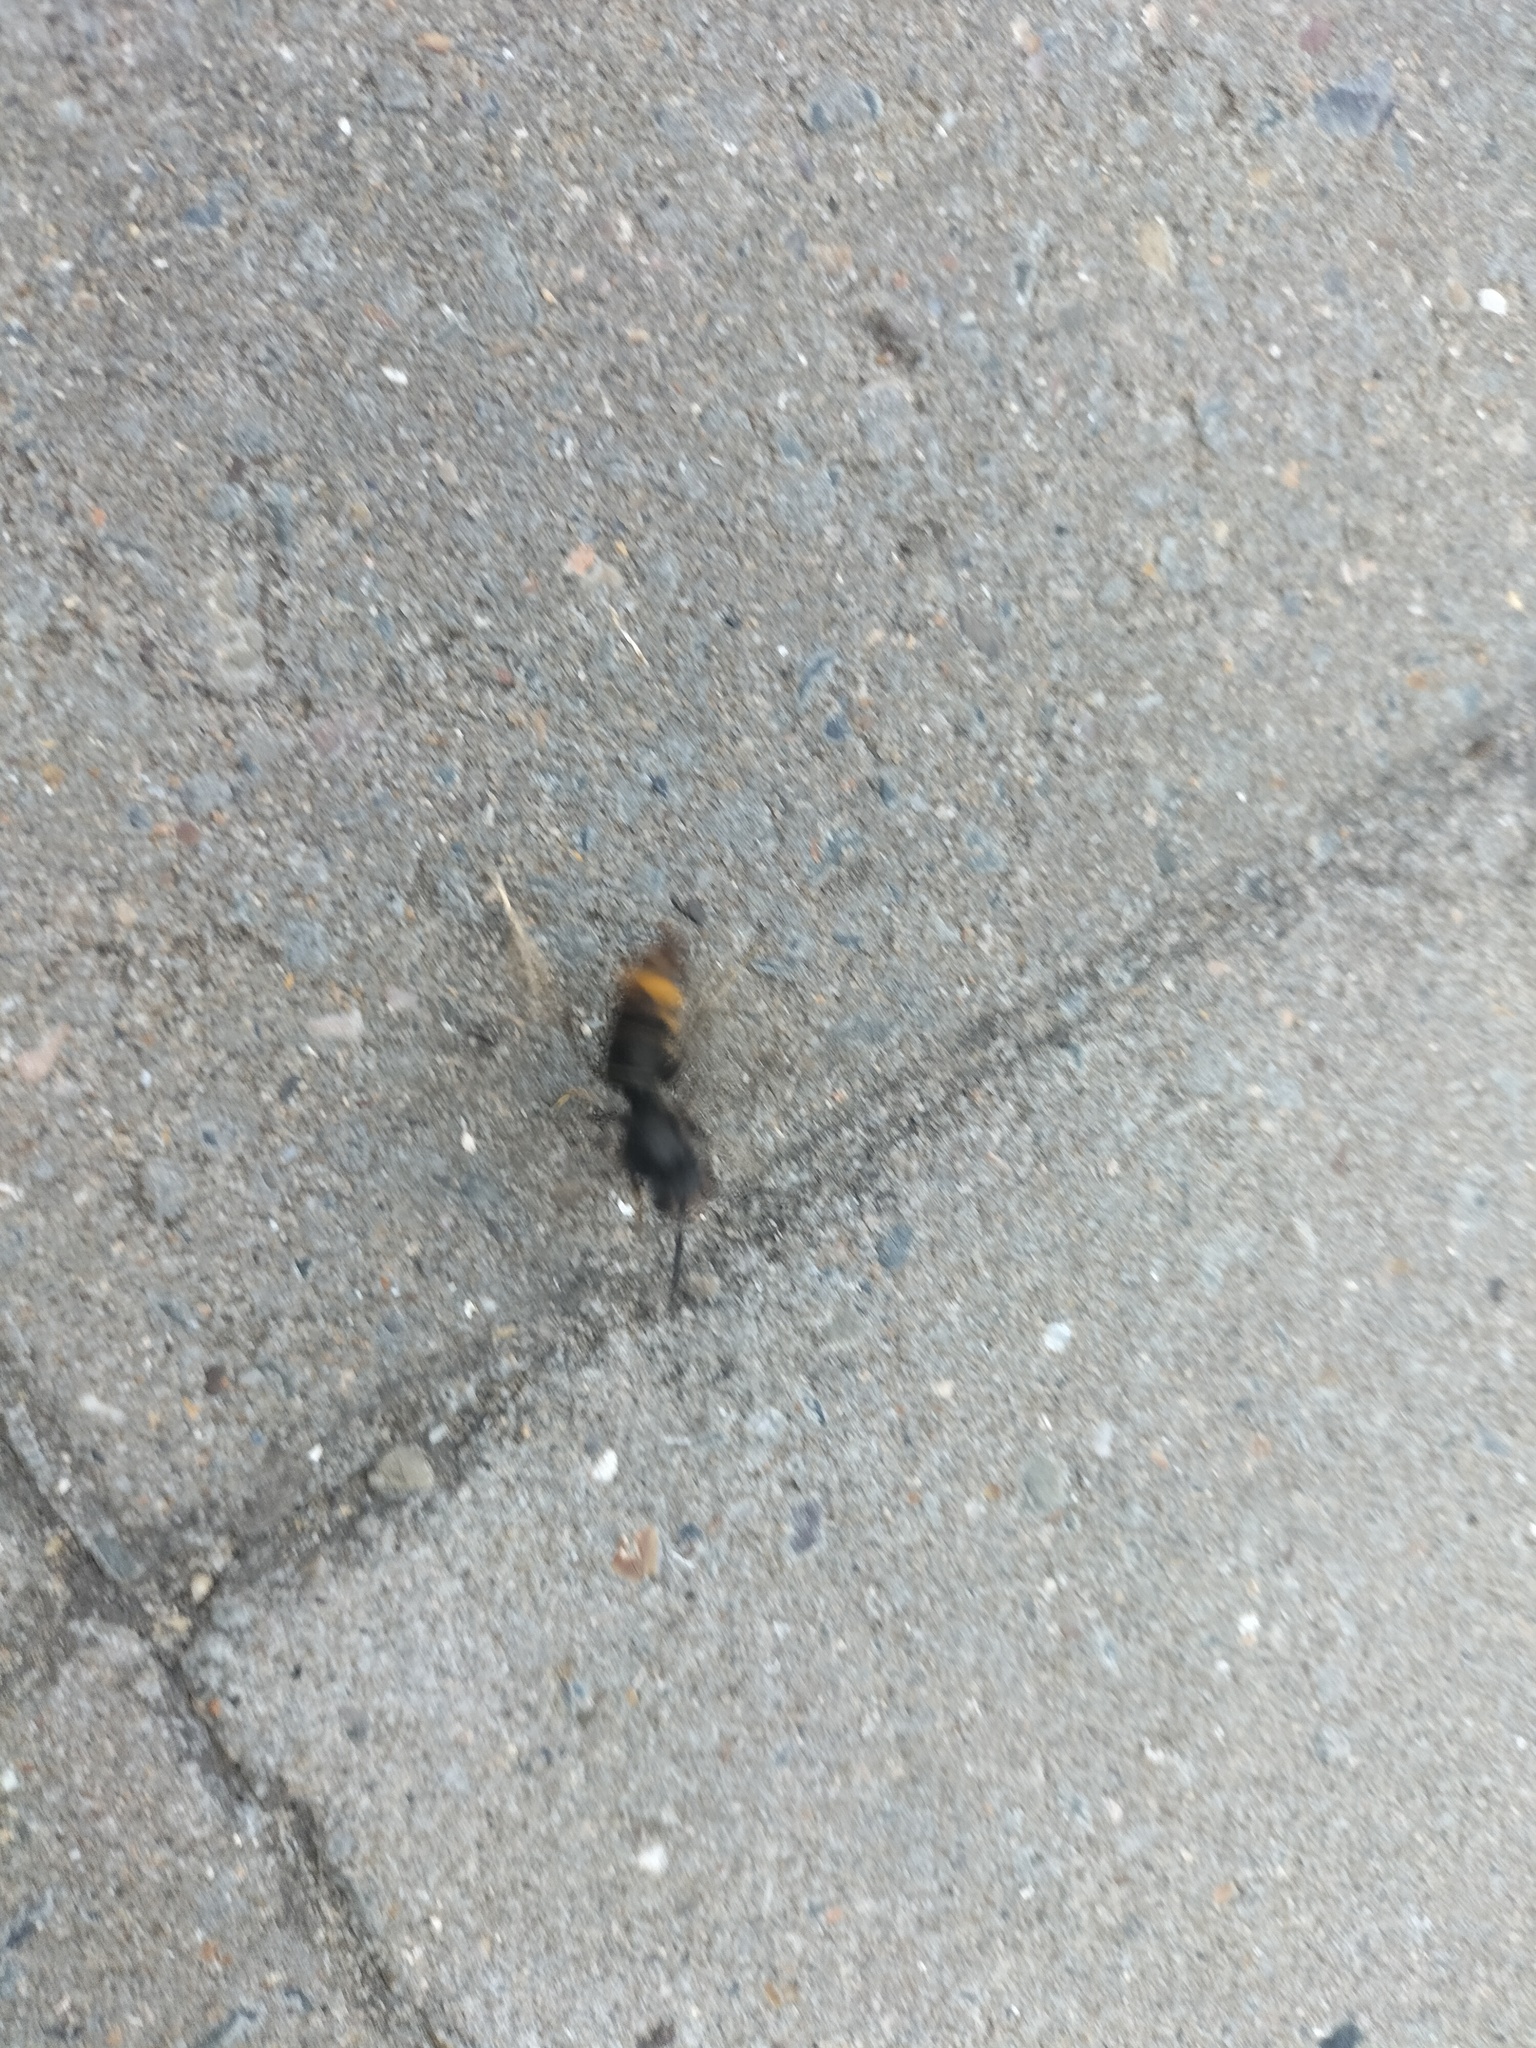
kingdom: Animalia
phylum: Arthropoda
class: Insecta
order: Hymenoptera
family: Vespidae
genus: Vespa
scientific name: Vespa velutina
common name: Asian hornet
